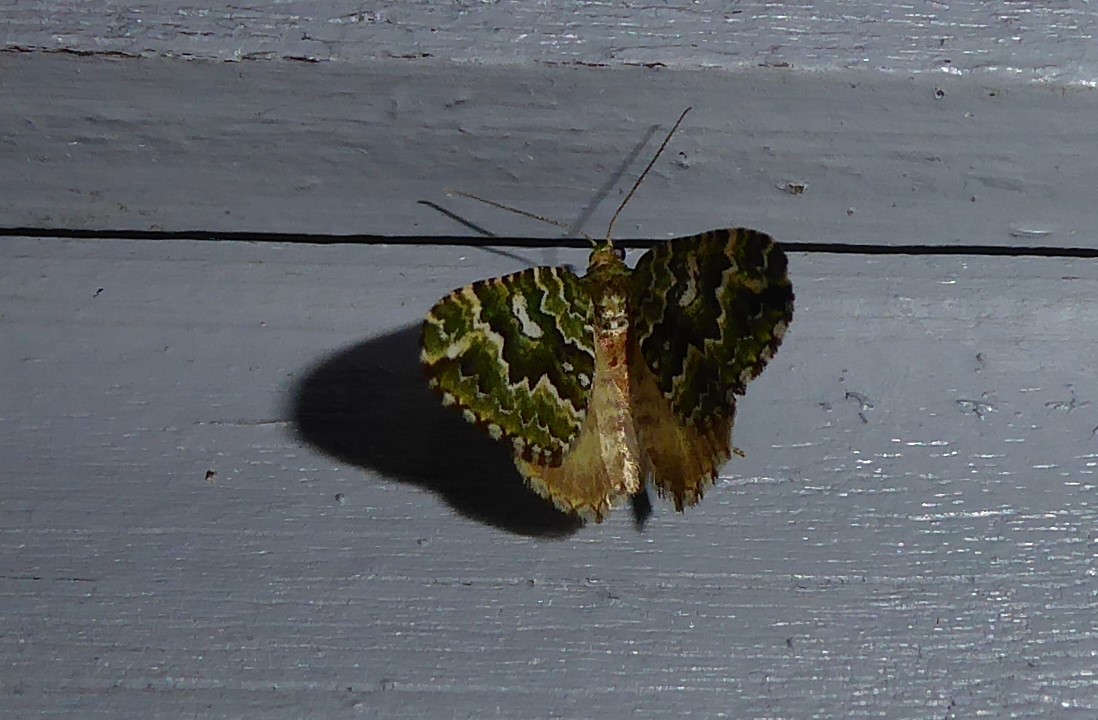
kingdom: Animalia
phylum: Arthropoda
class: Insecta
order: Lepidoptera
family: Geometridae
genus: Asaphodes
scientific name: Asaphodes beata
